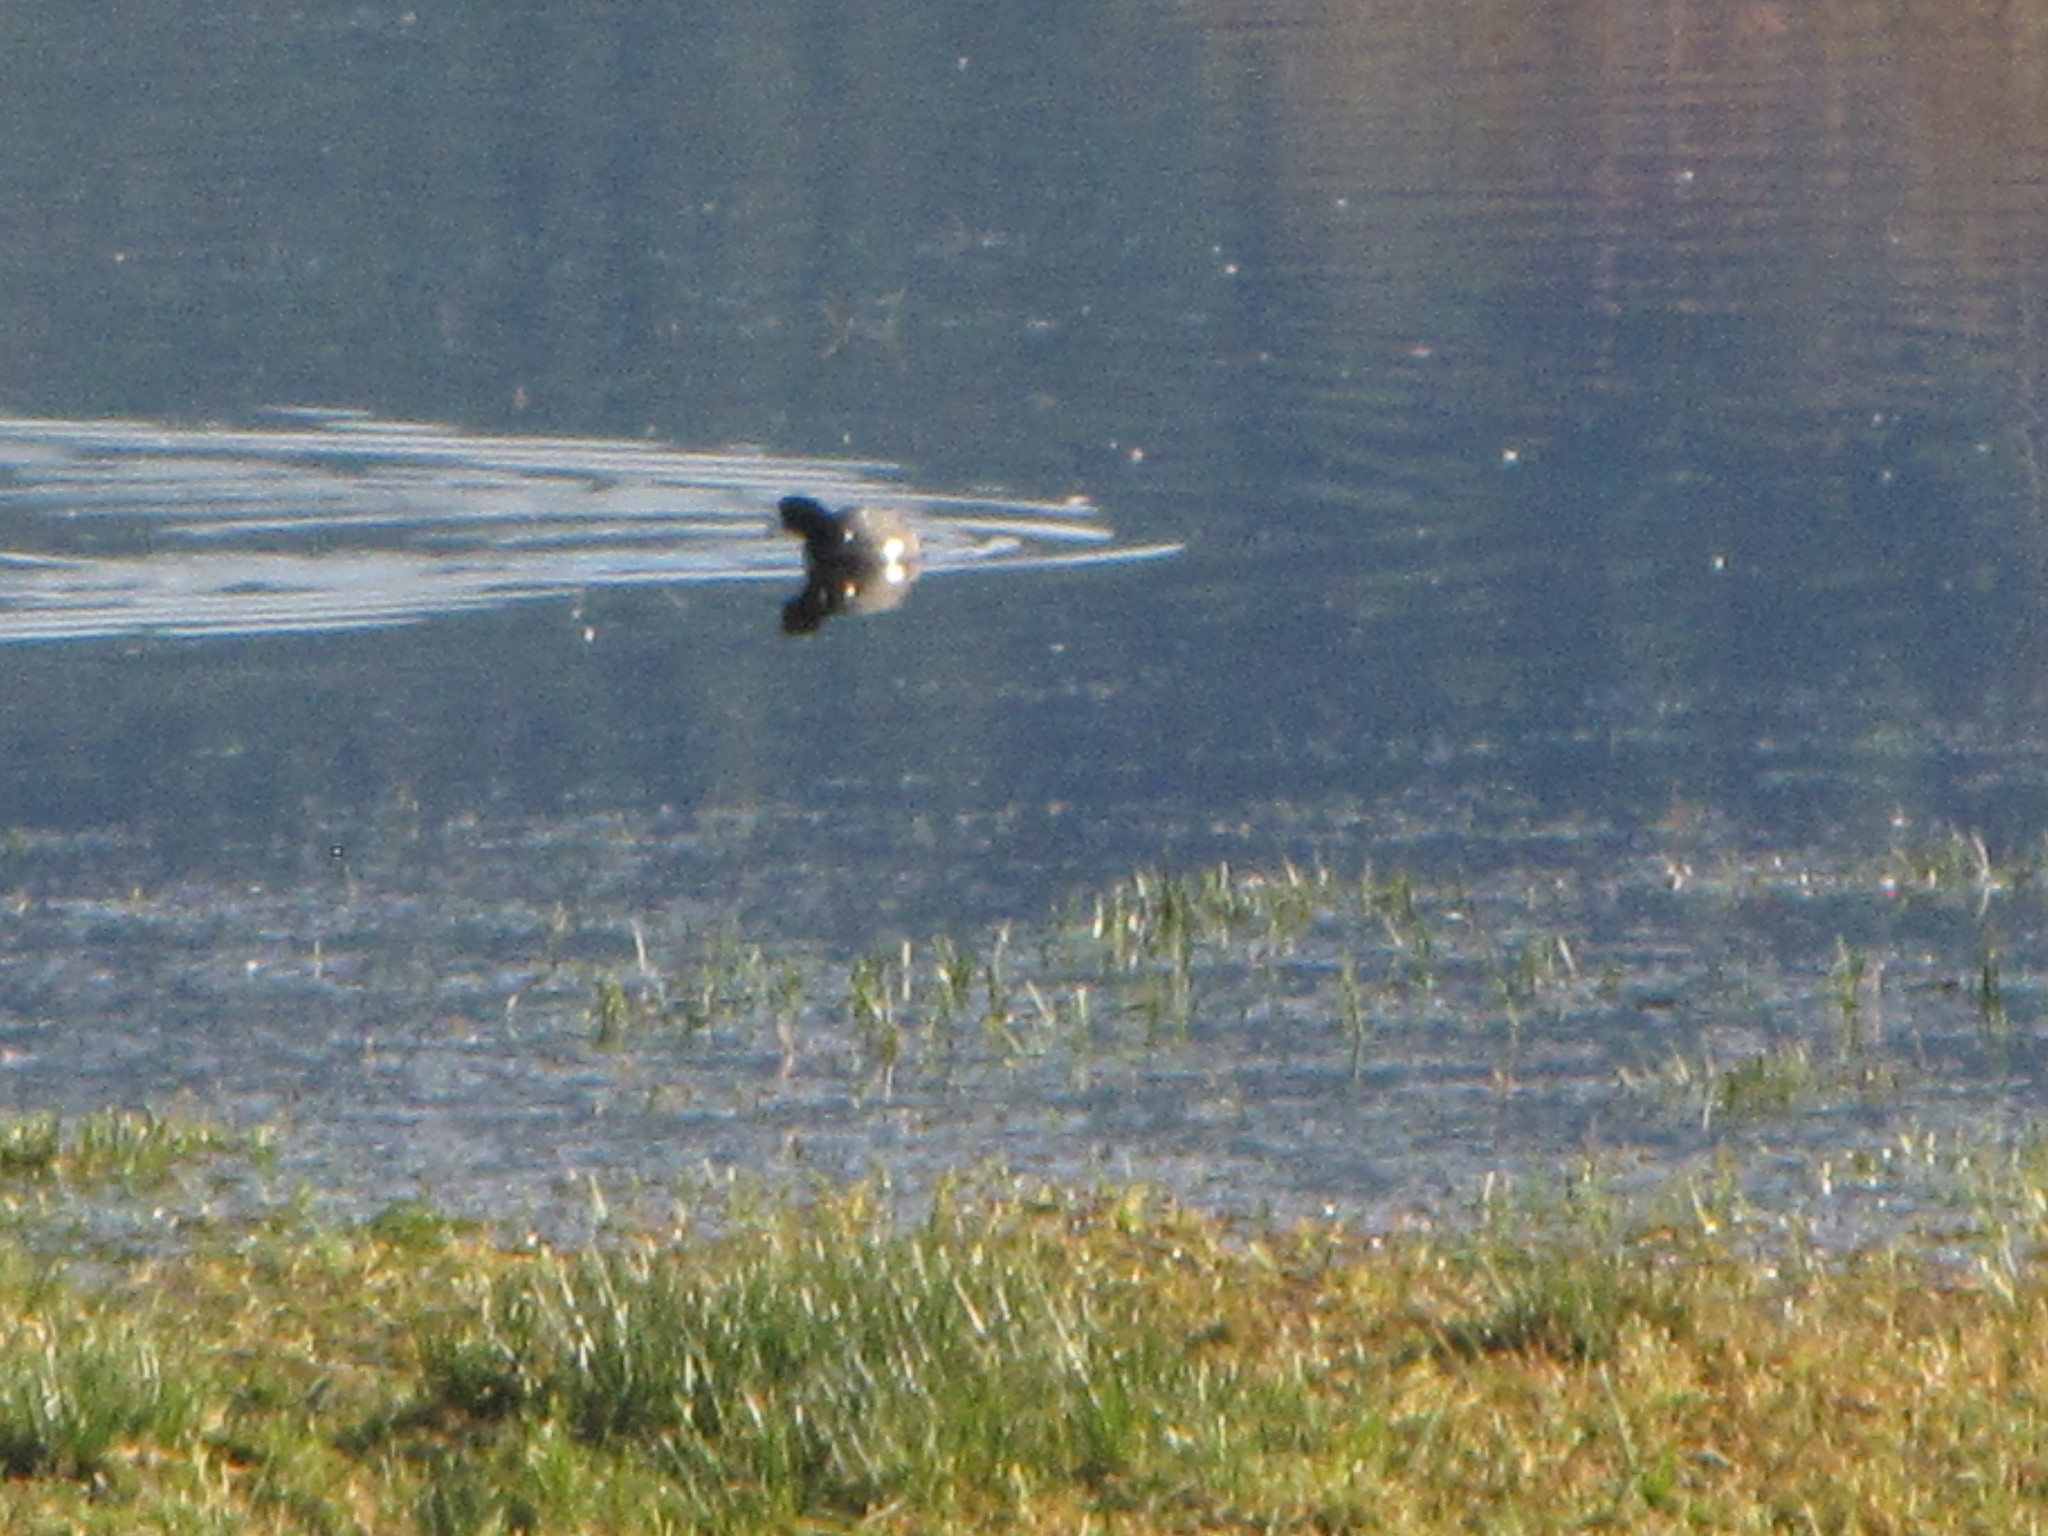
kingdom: Animalia
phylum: Chordata
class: Aves
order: Gruiformes
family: Rallidae
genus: Fulica
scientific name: Fulica americana
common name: American coot
